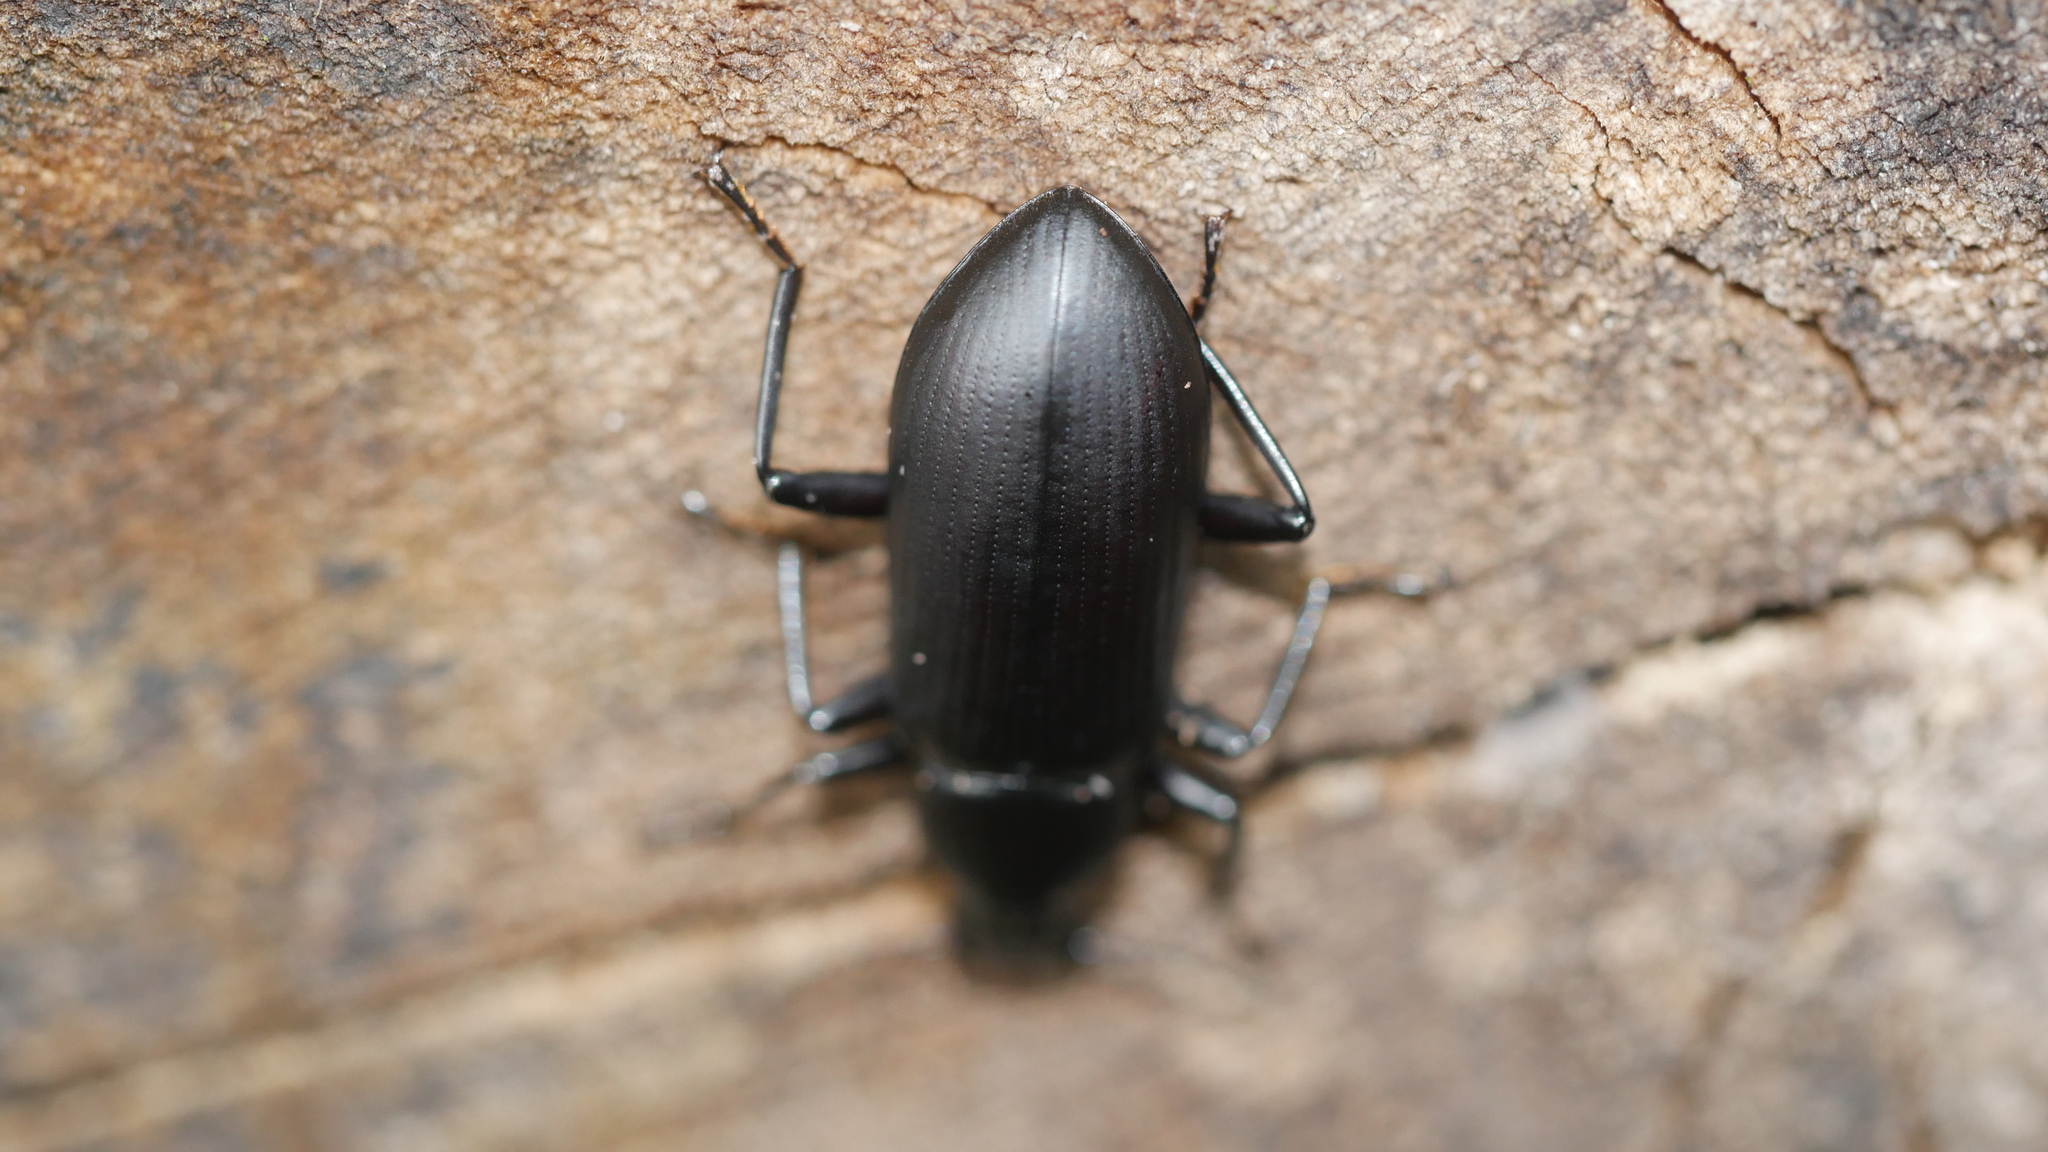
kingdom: Animalia
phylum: Arthropoda
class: Insecta
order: Coleoptera
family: Tenebrionidae
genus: Alobates
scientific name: Alobates
